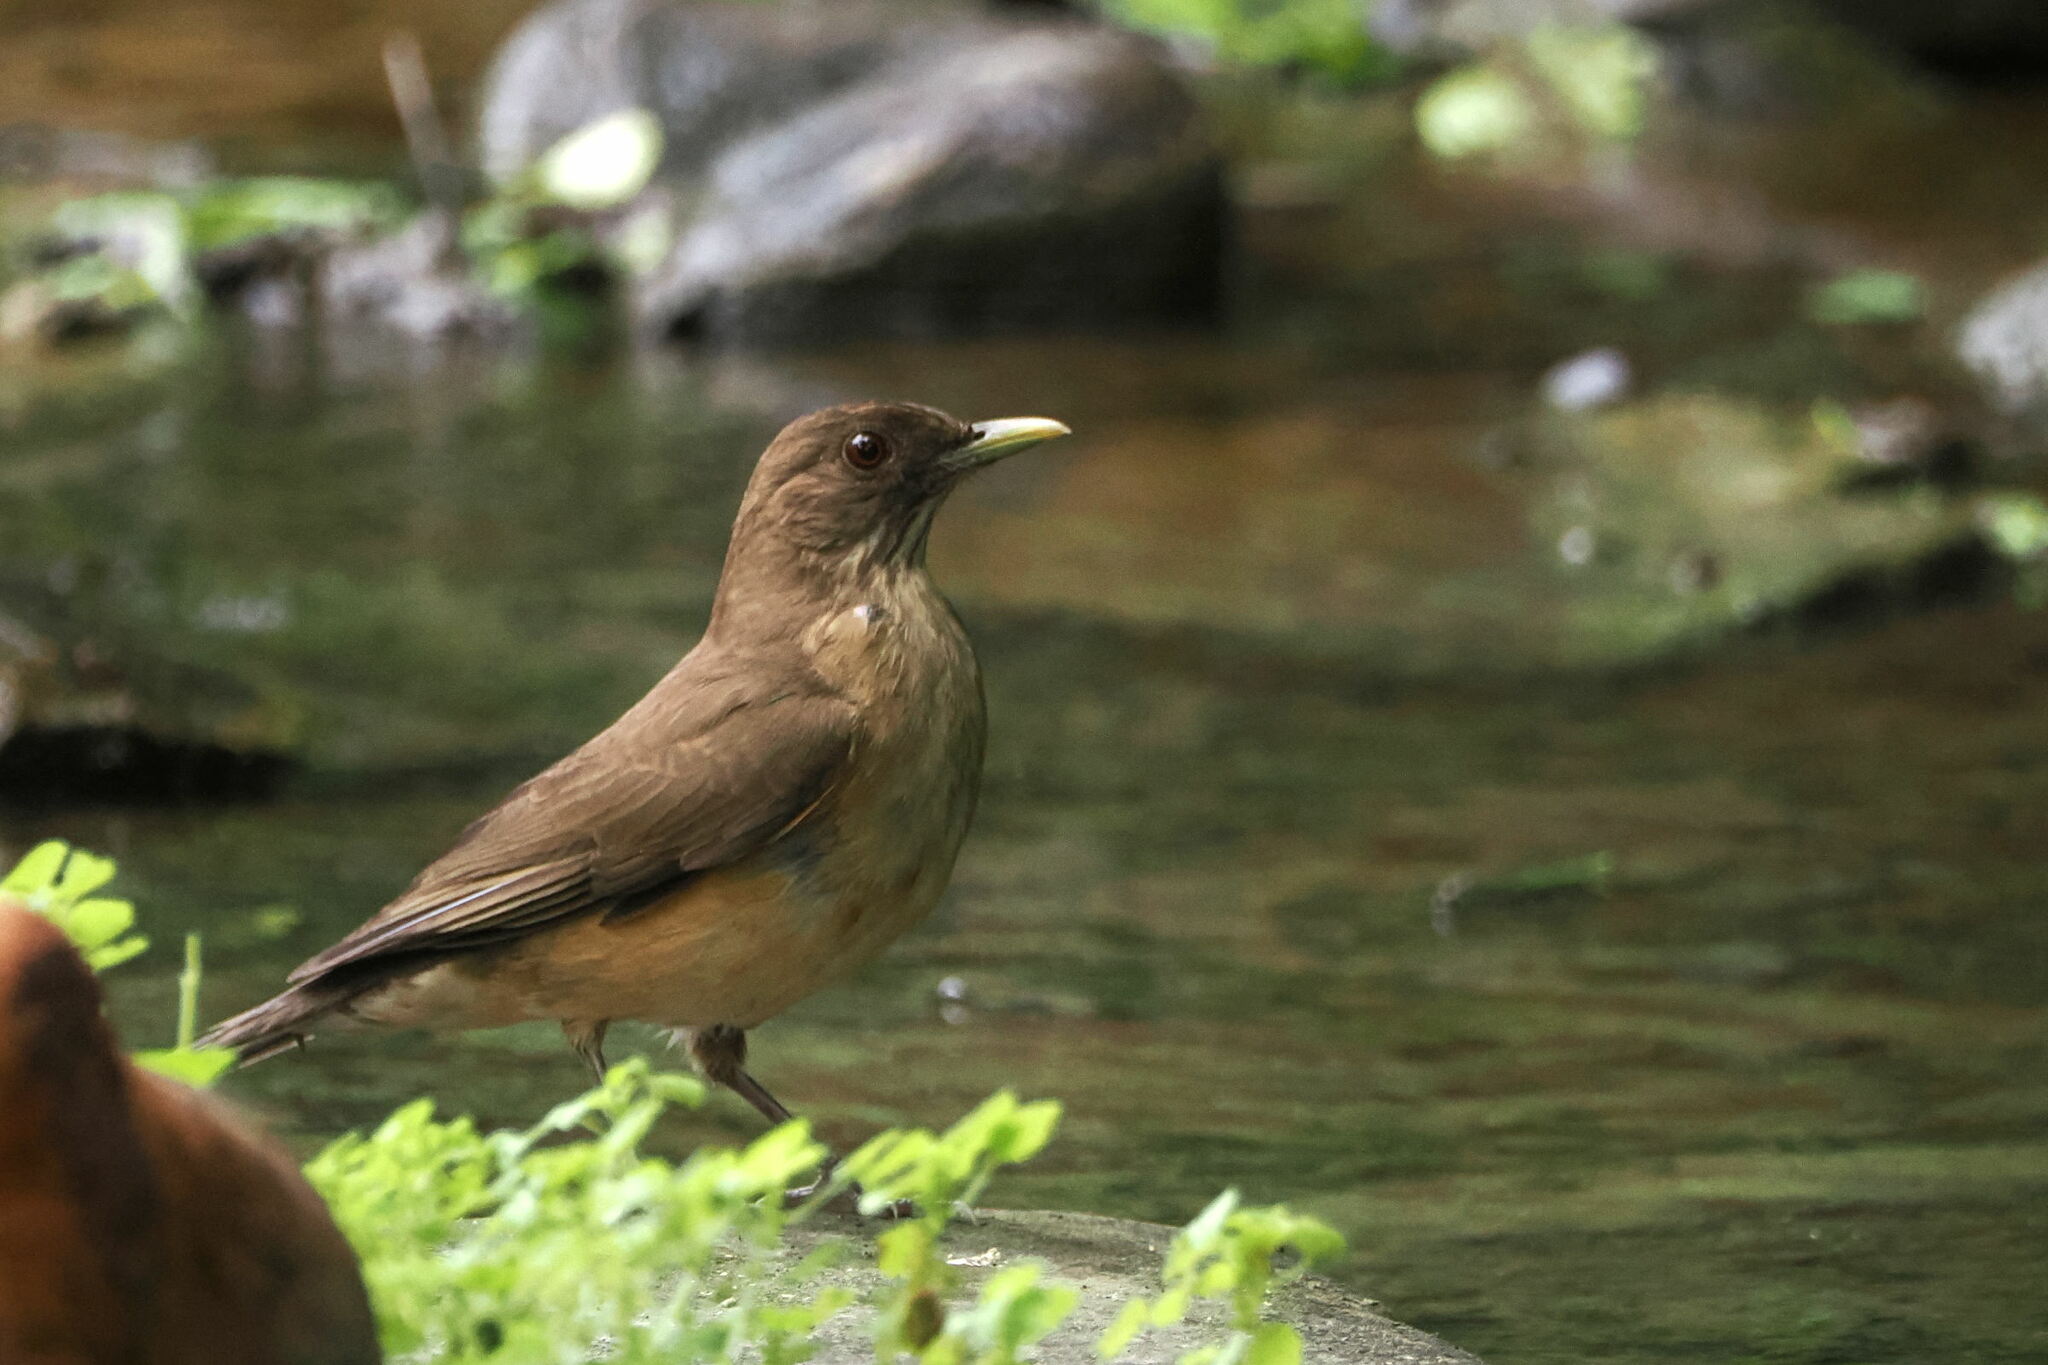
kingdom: Animalia
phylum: Chordata
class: Aves
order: Passeriformes
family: Turdidae
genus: Turdus
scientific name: Turdus grayi
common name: Clay-colored thrush
